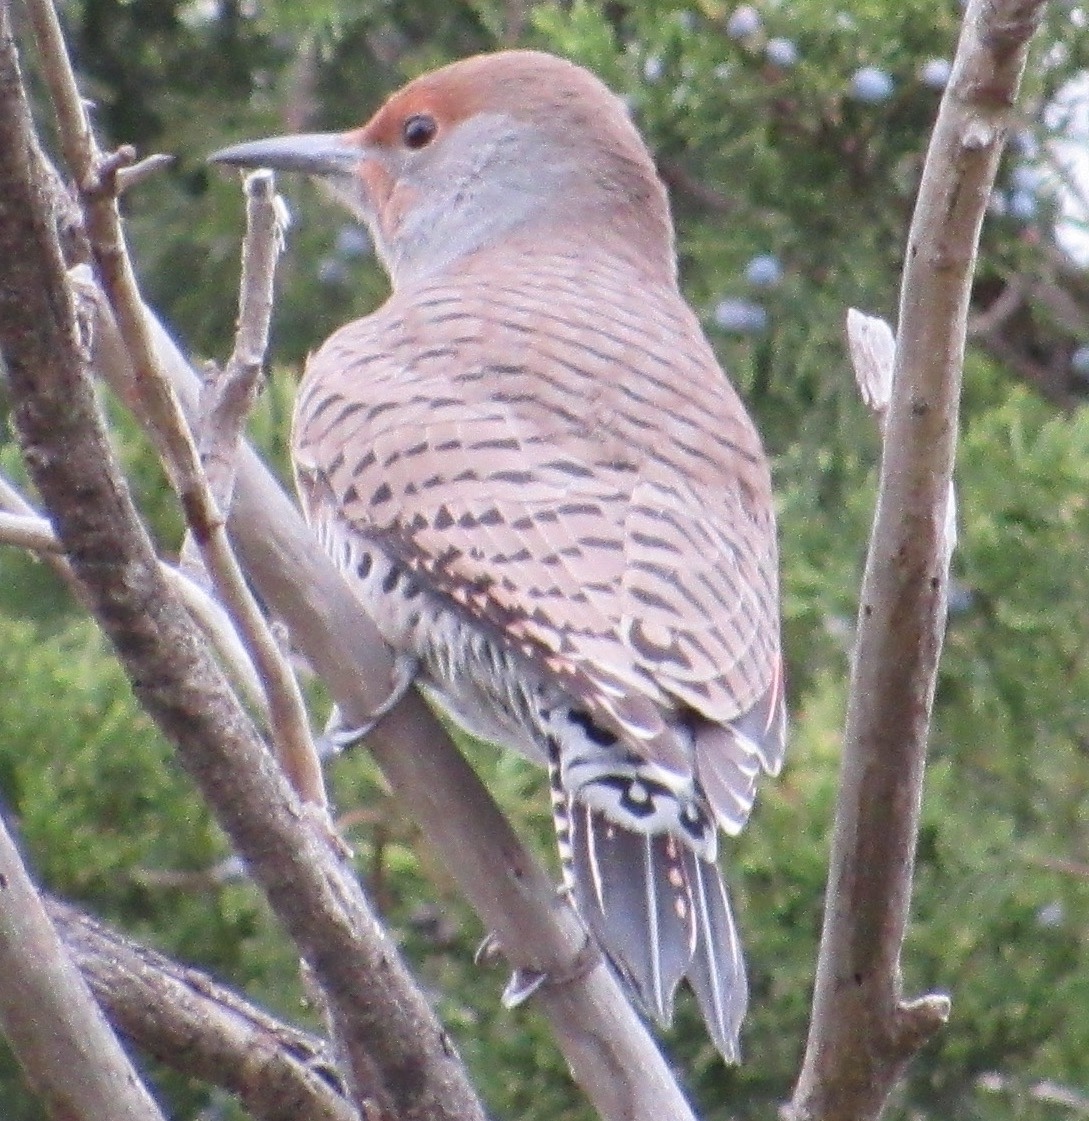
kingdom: Animalia
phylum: Chordata
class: Aves
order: Piciformes
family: Picidae
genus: Colaptes
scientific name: Colaptes auratus
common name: Northern flicker
